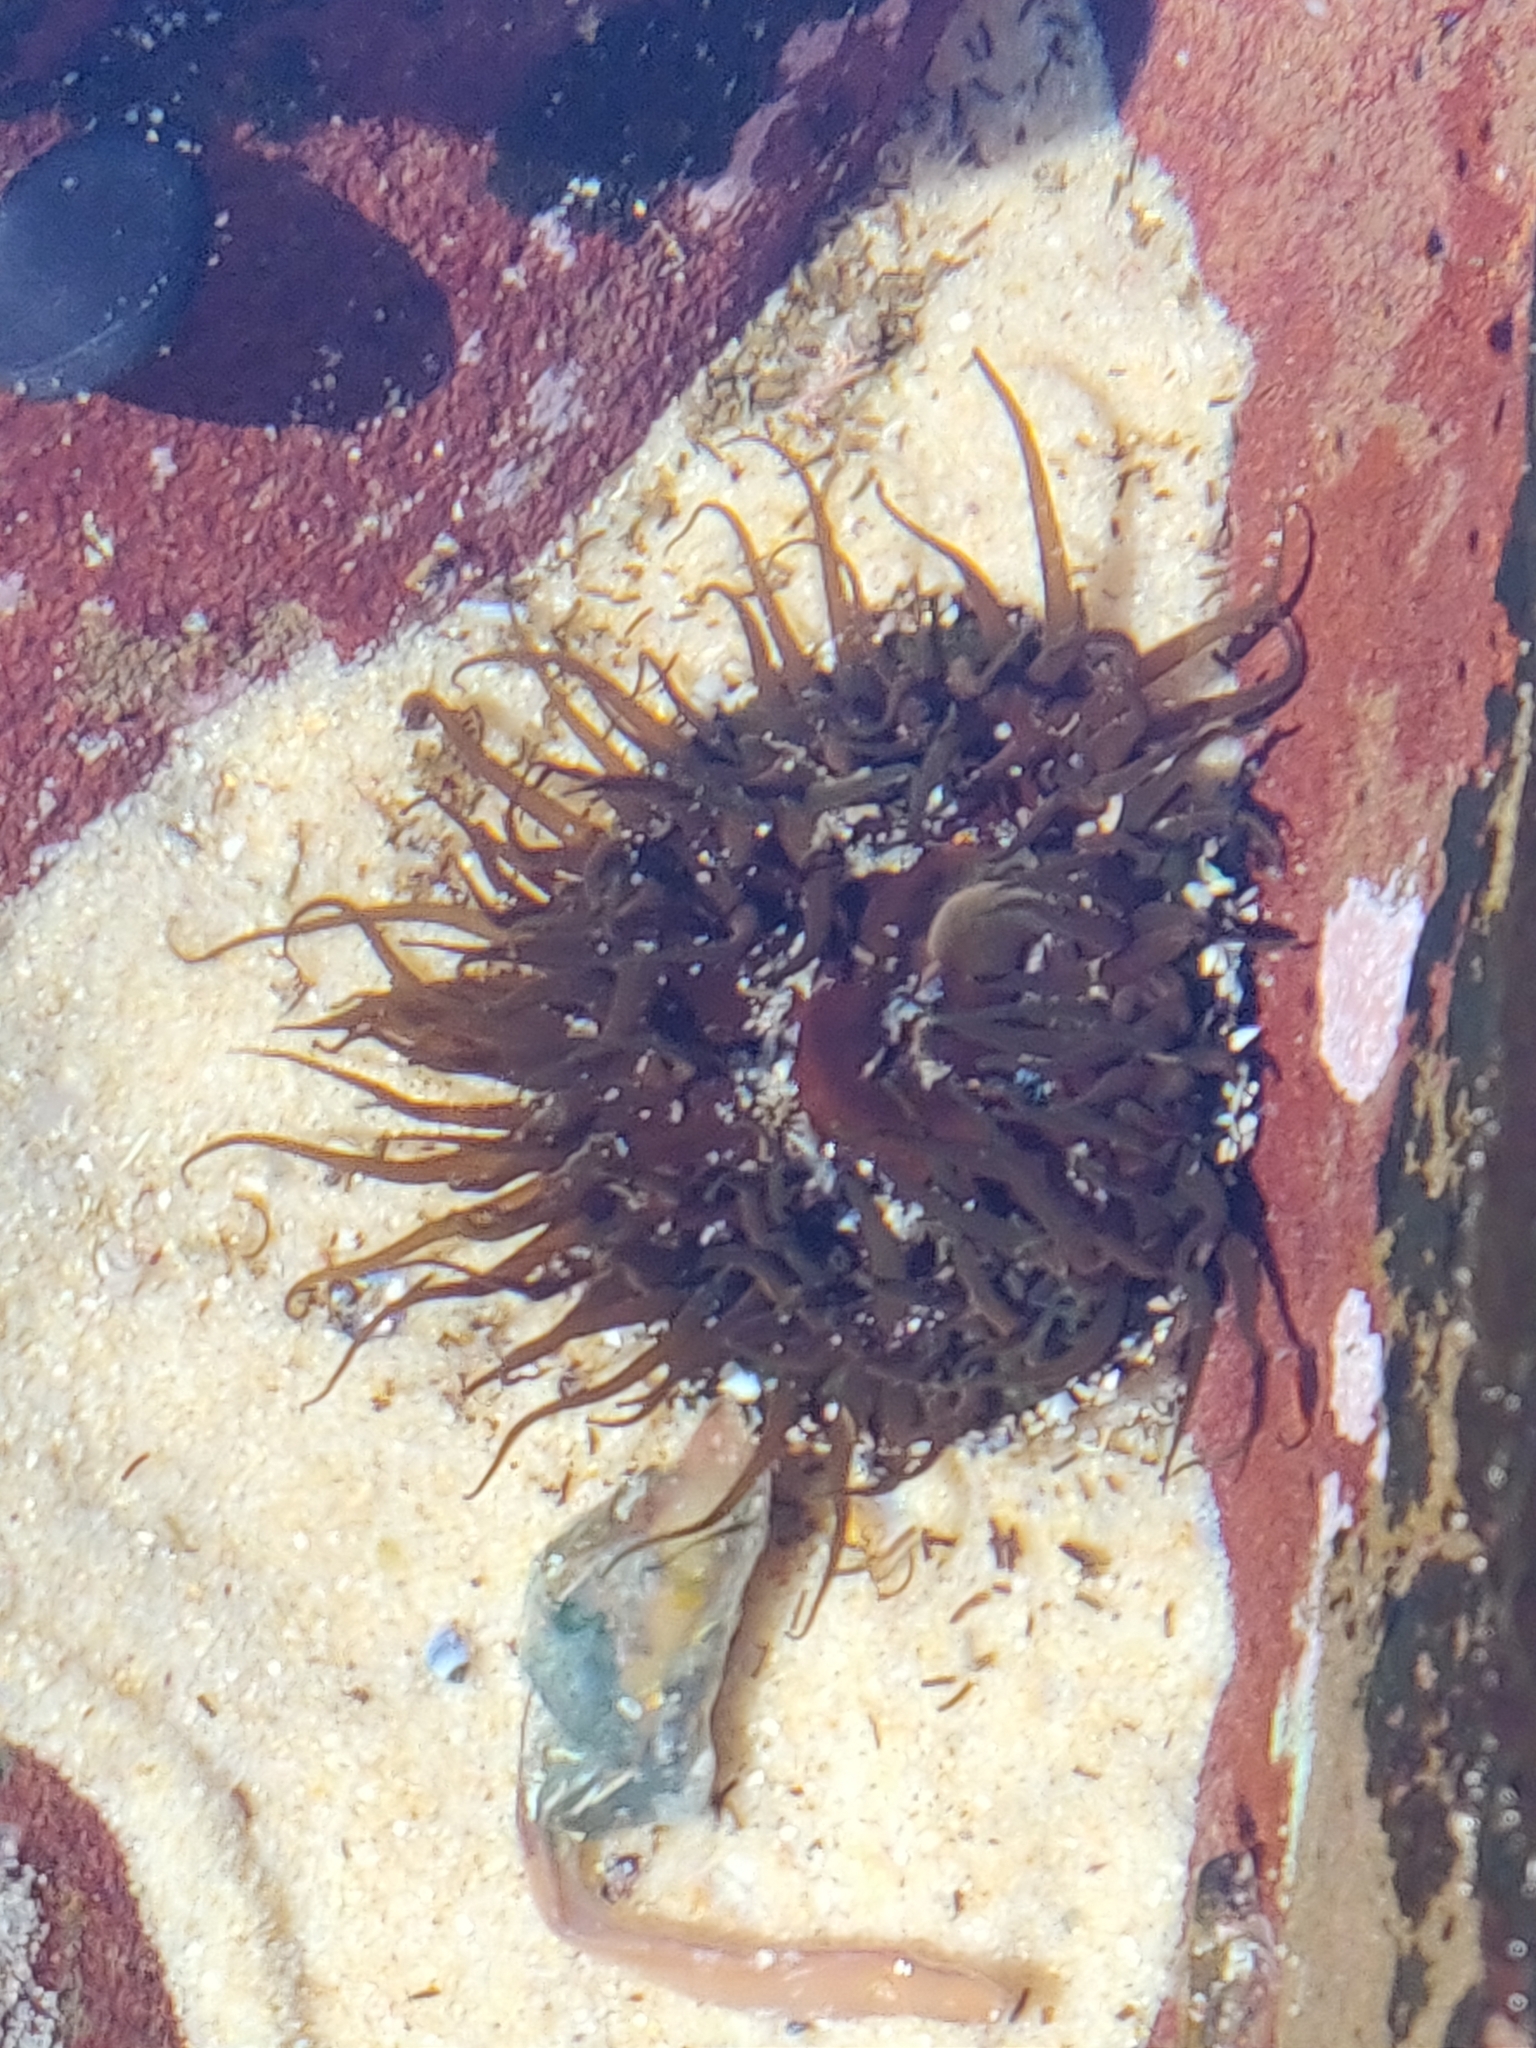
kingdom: Animalia
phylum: Cnidaria
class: Anthozoa
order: Actiniaria
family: Actiniidae
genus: Aulactinia
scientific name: Aulactinia veratra
